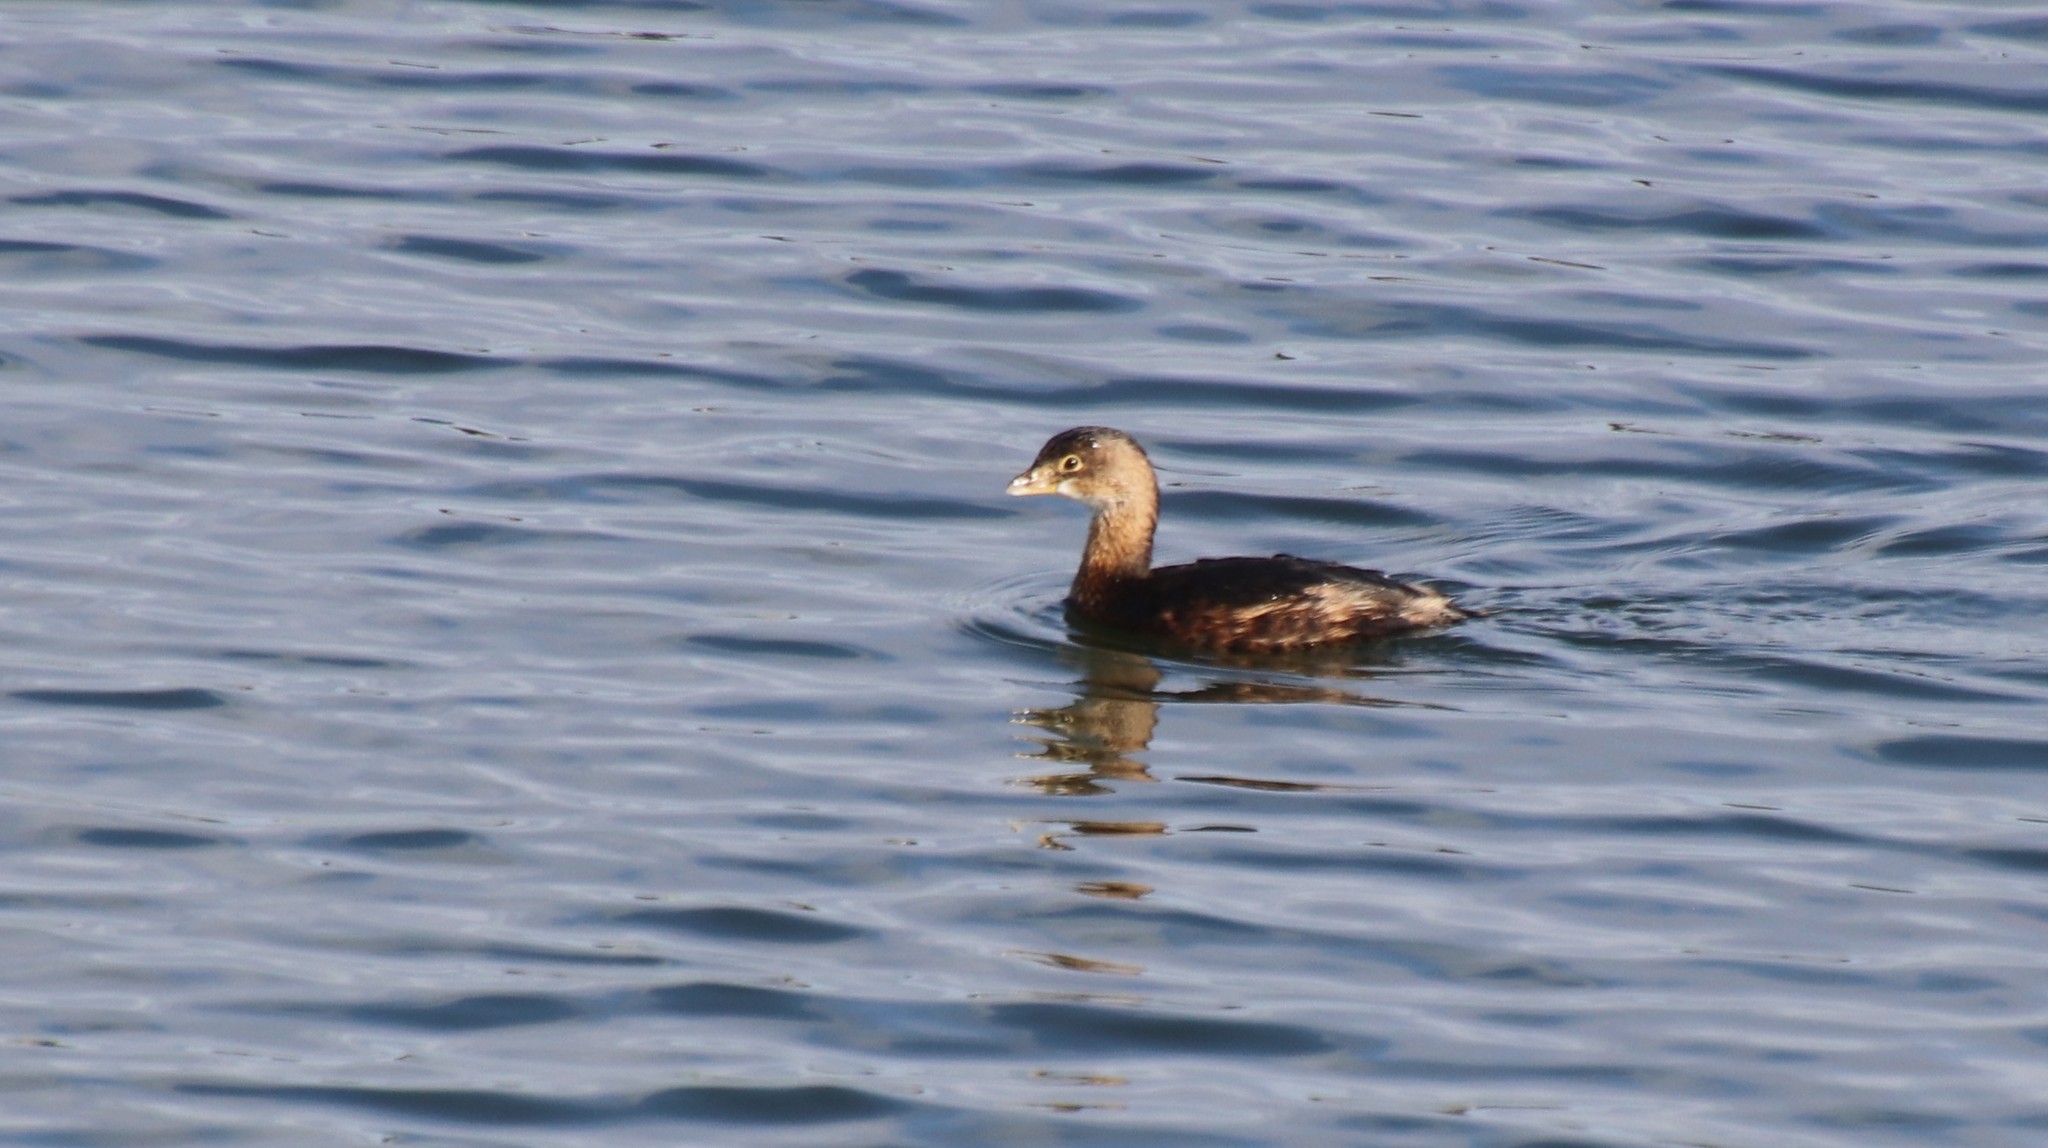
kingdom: Animalia
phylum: Chordata
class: Aves
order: Podicipediformes
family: Podicipedidae
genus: Podilymbus
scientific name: Podilymbus podiceps
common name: Pied-billed grebe
